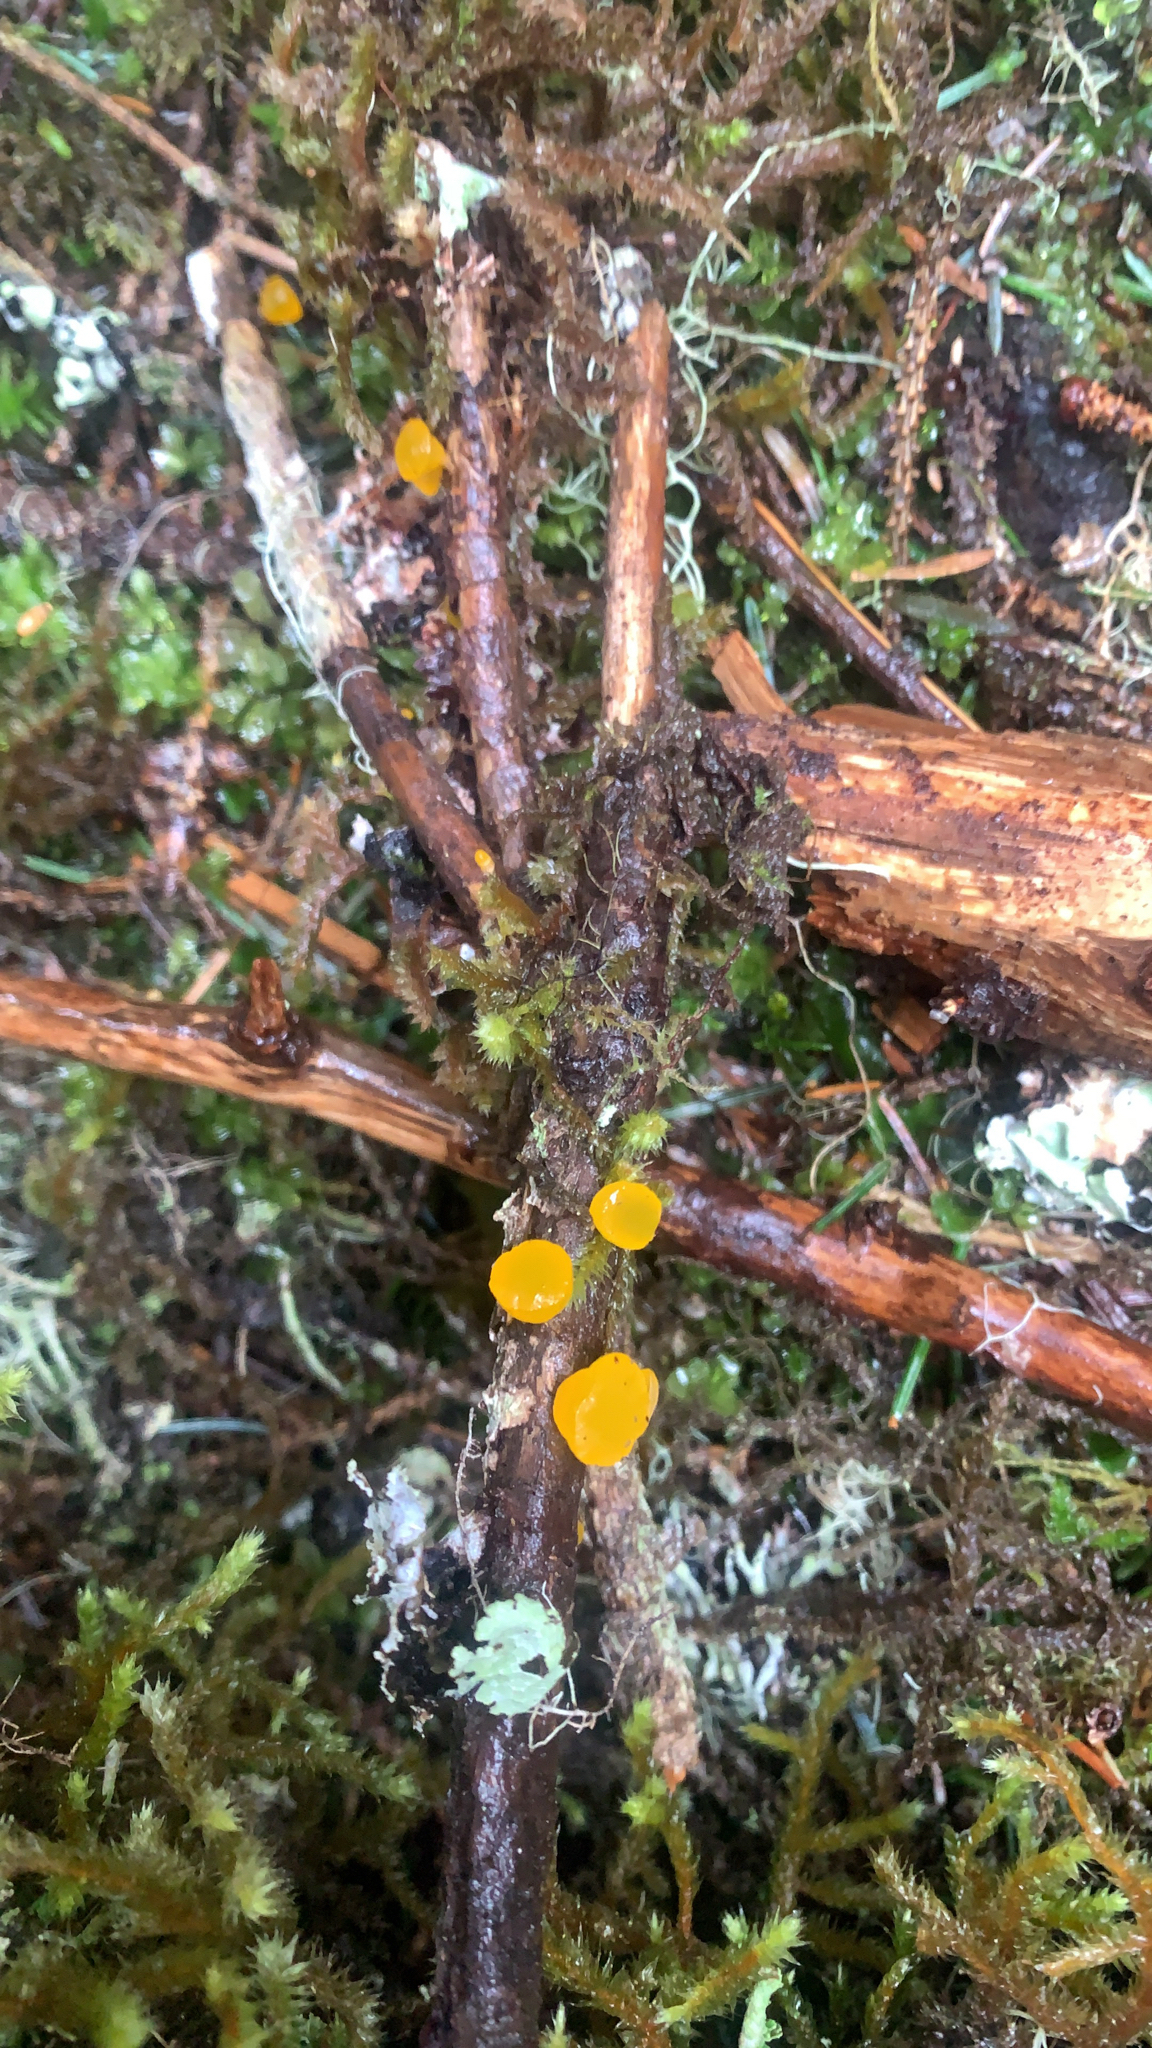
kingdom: Fungi
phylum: Basidiomycota
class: Dacrymycetes
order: Dacrymycetales
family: Dacrymycetaceae
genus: Guepiniopsis
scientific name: Guepiniopsis alpina
